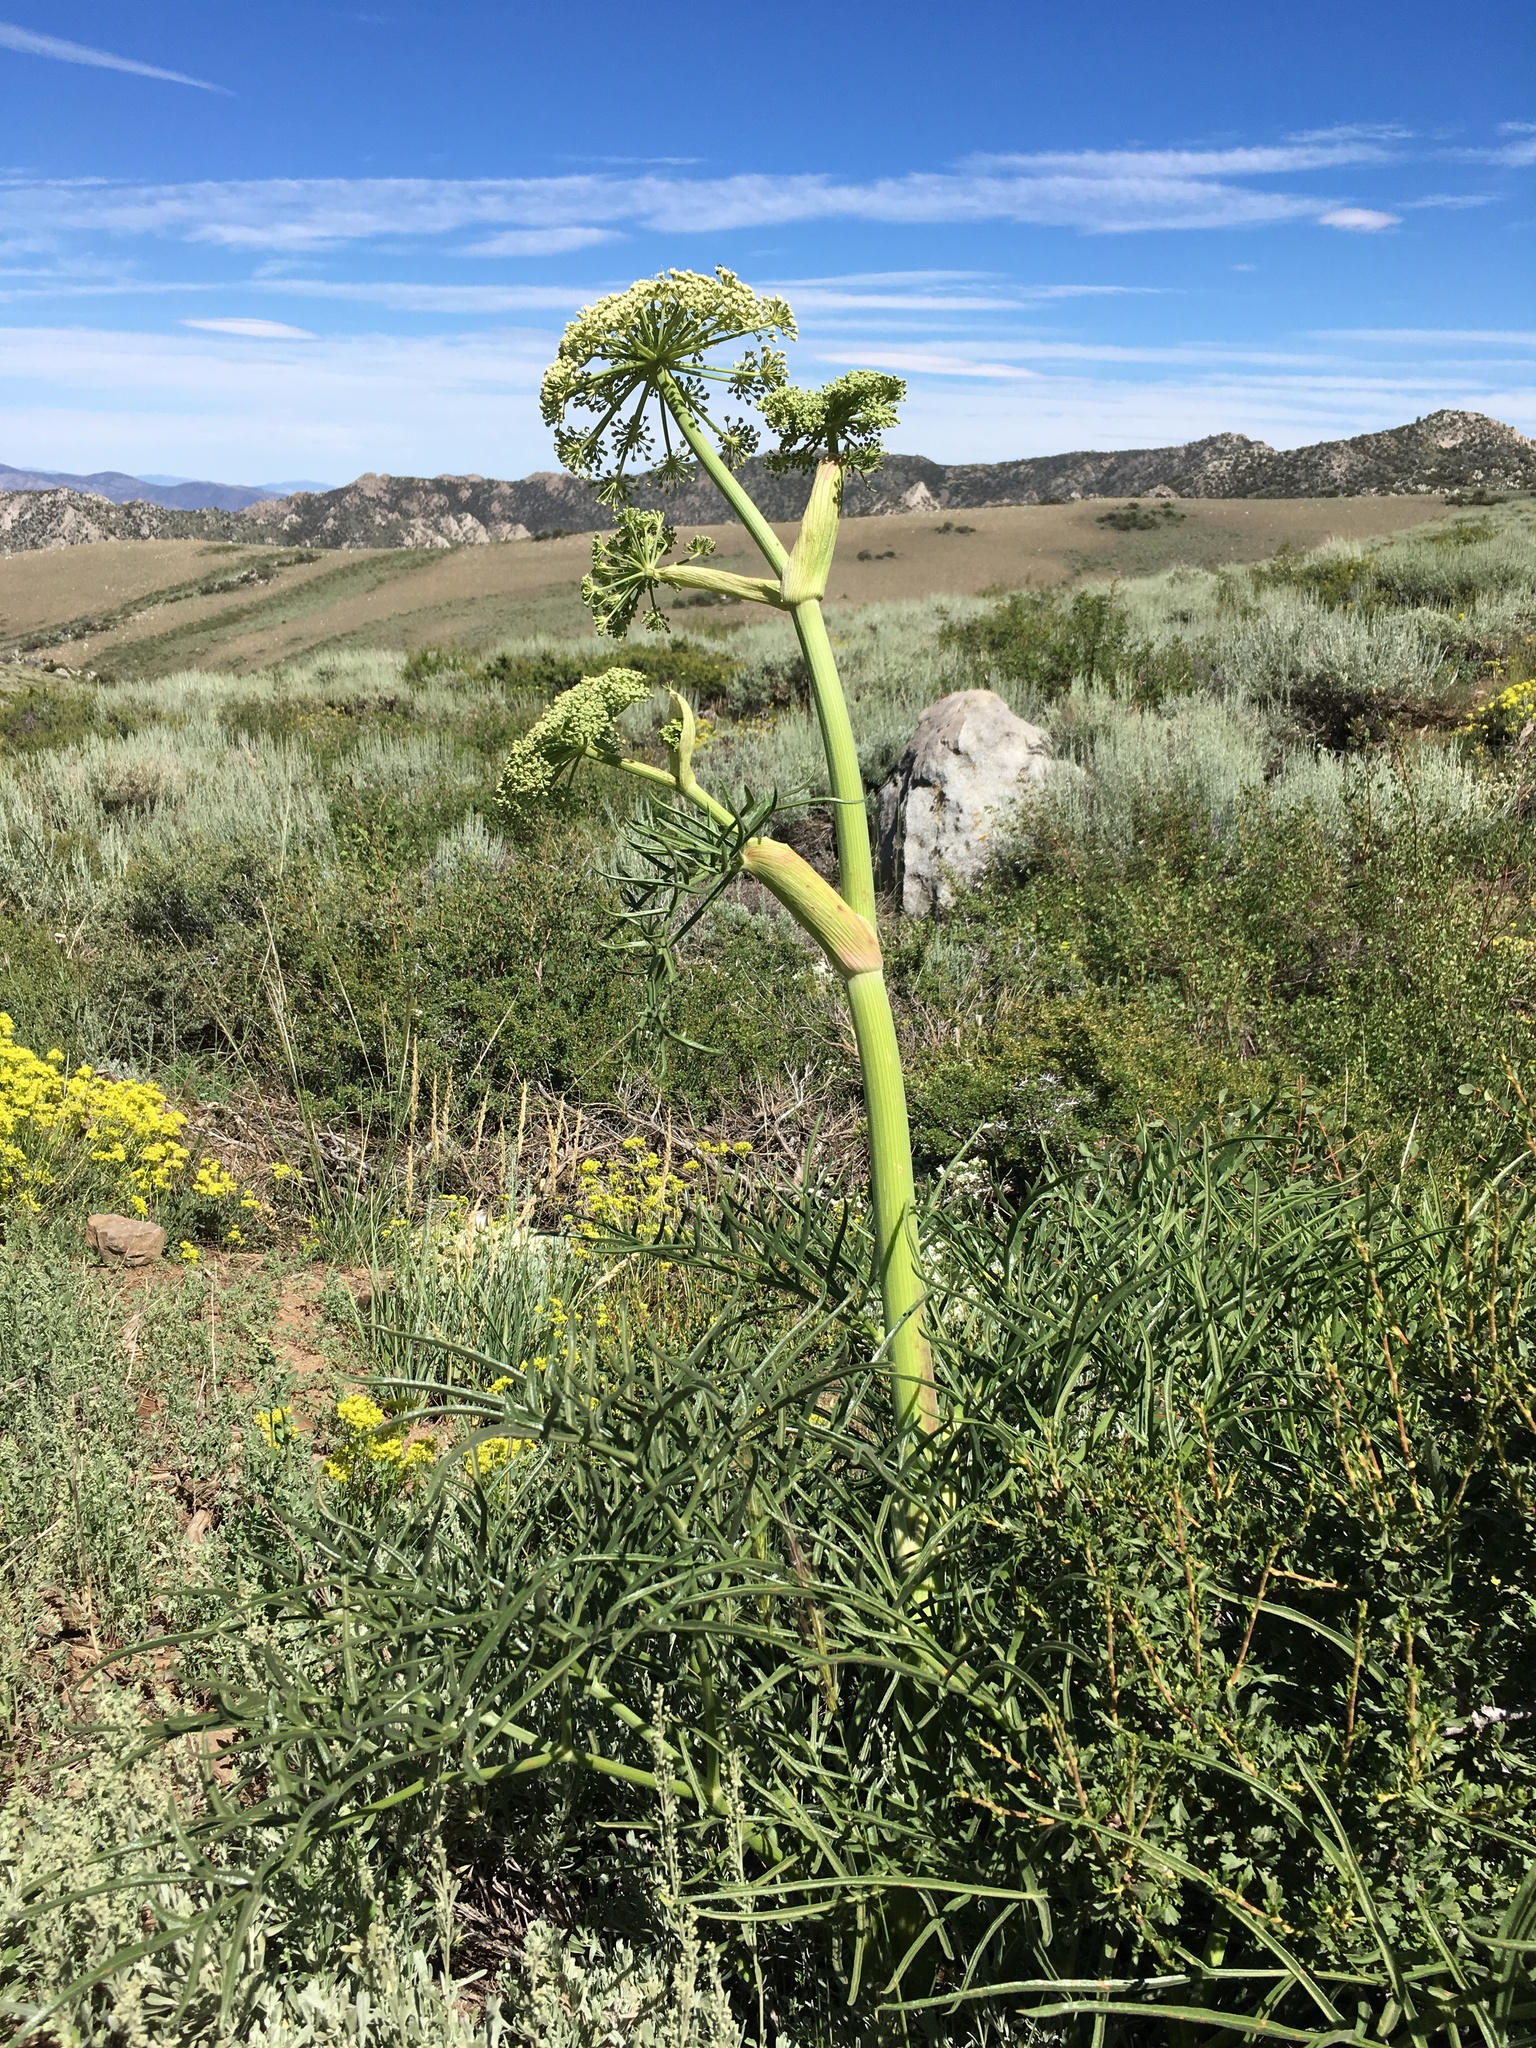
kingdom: Plantae
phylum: Tracheophyta
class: Magnoliopsida
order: Apiales
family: Apiaceae
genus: Angelica
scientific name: Angelica lineariloba
